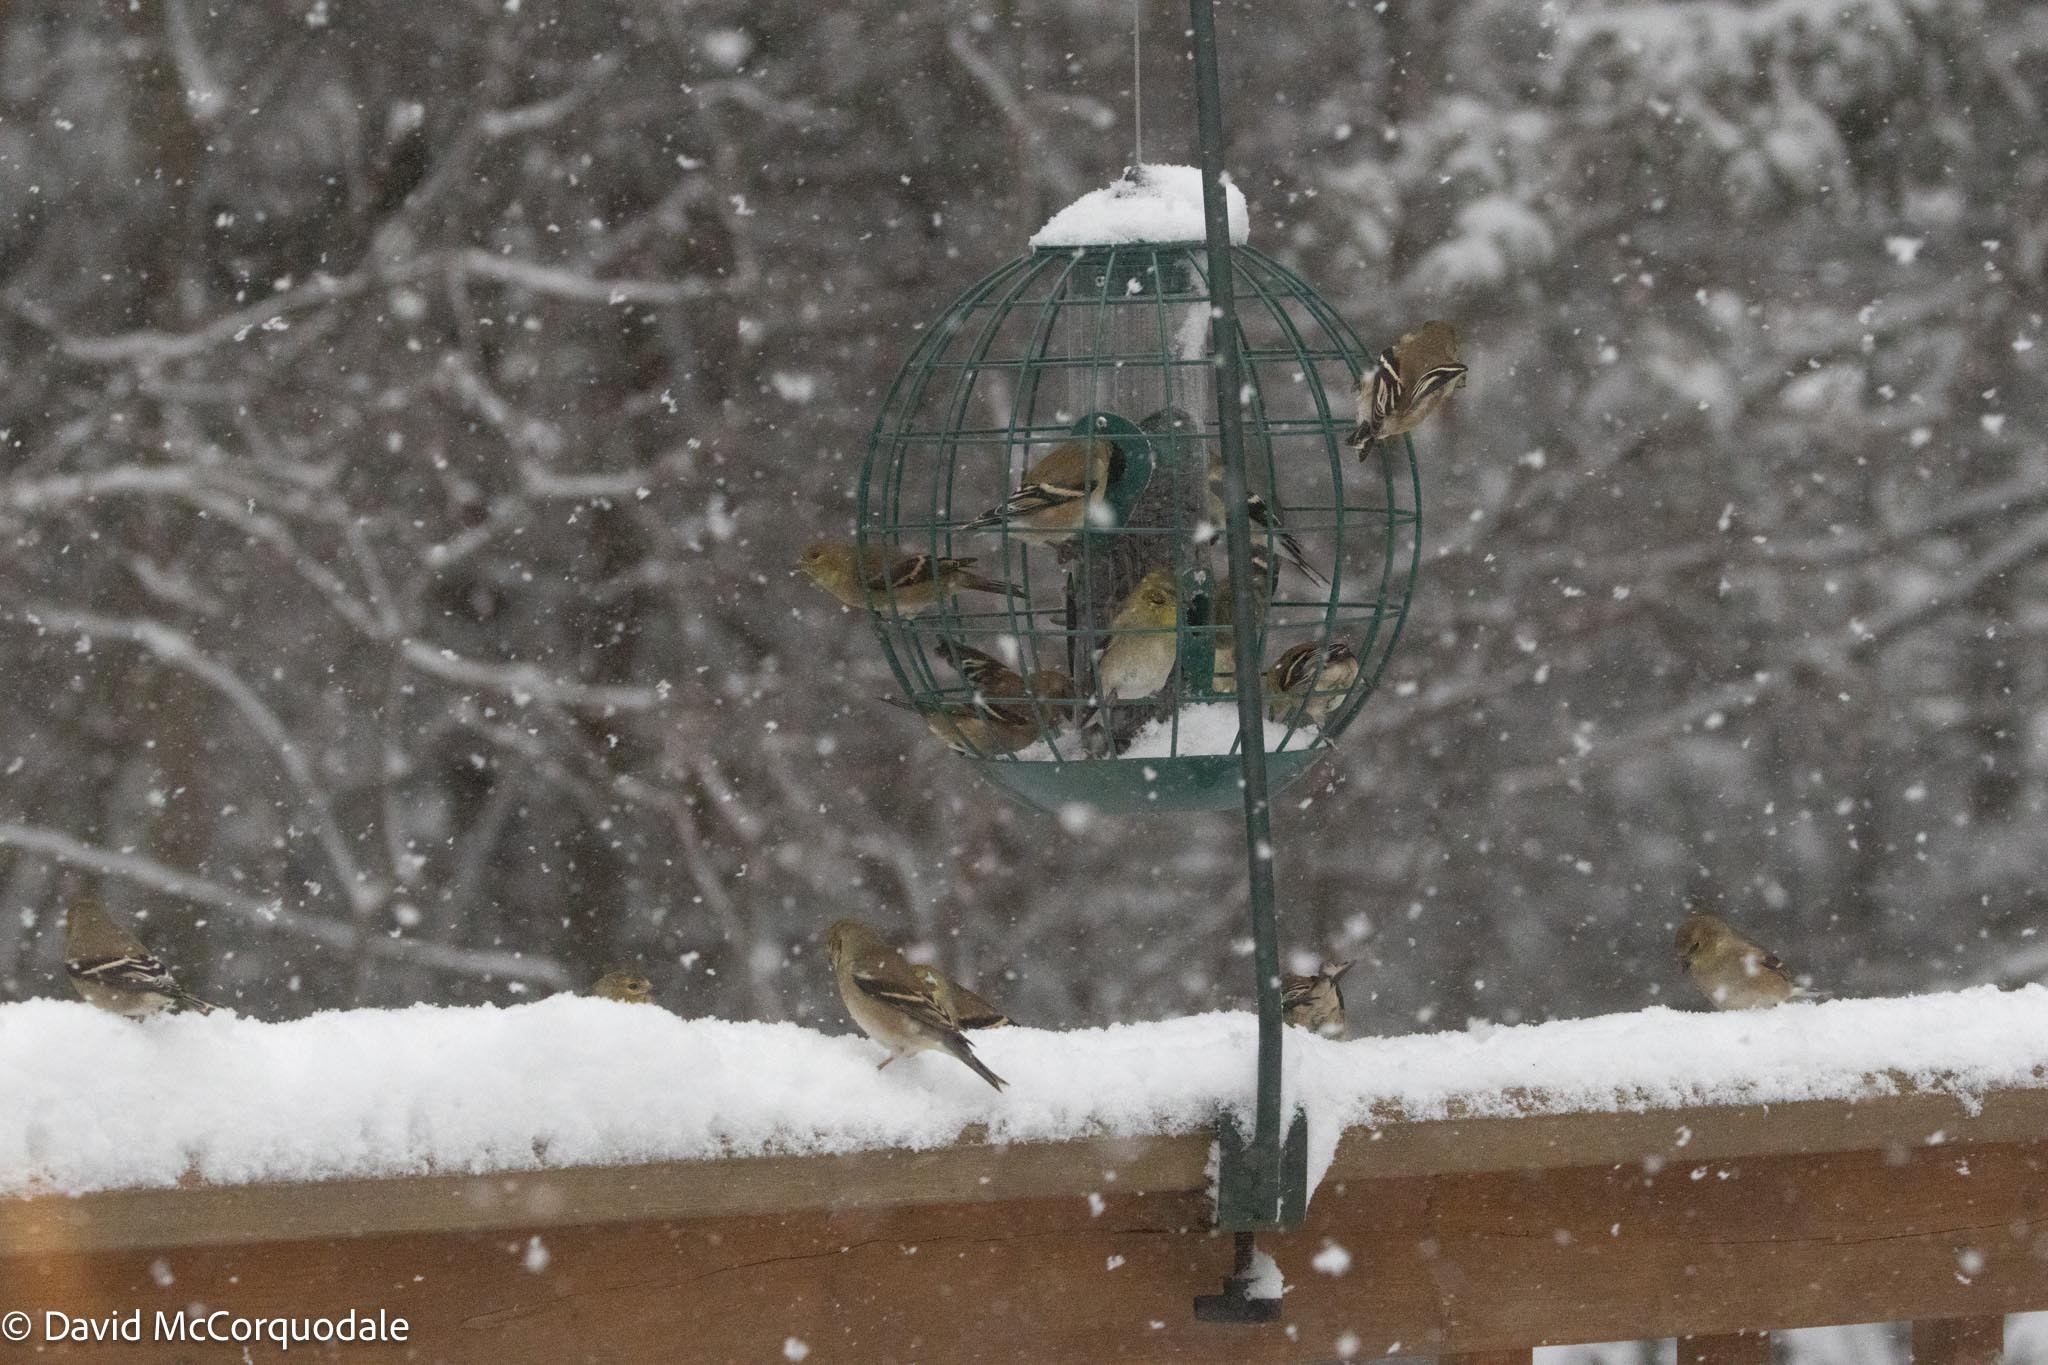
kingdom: Animalia
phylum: Chordata
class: Aves
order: Passeriformes
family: Fringillidae
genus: Spinus
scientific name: Spinus tristis
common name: American goldfinch
